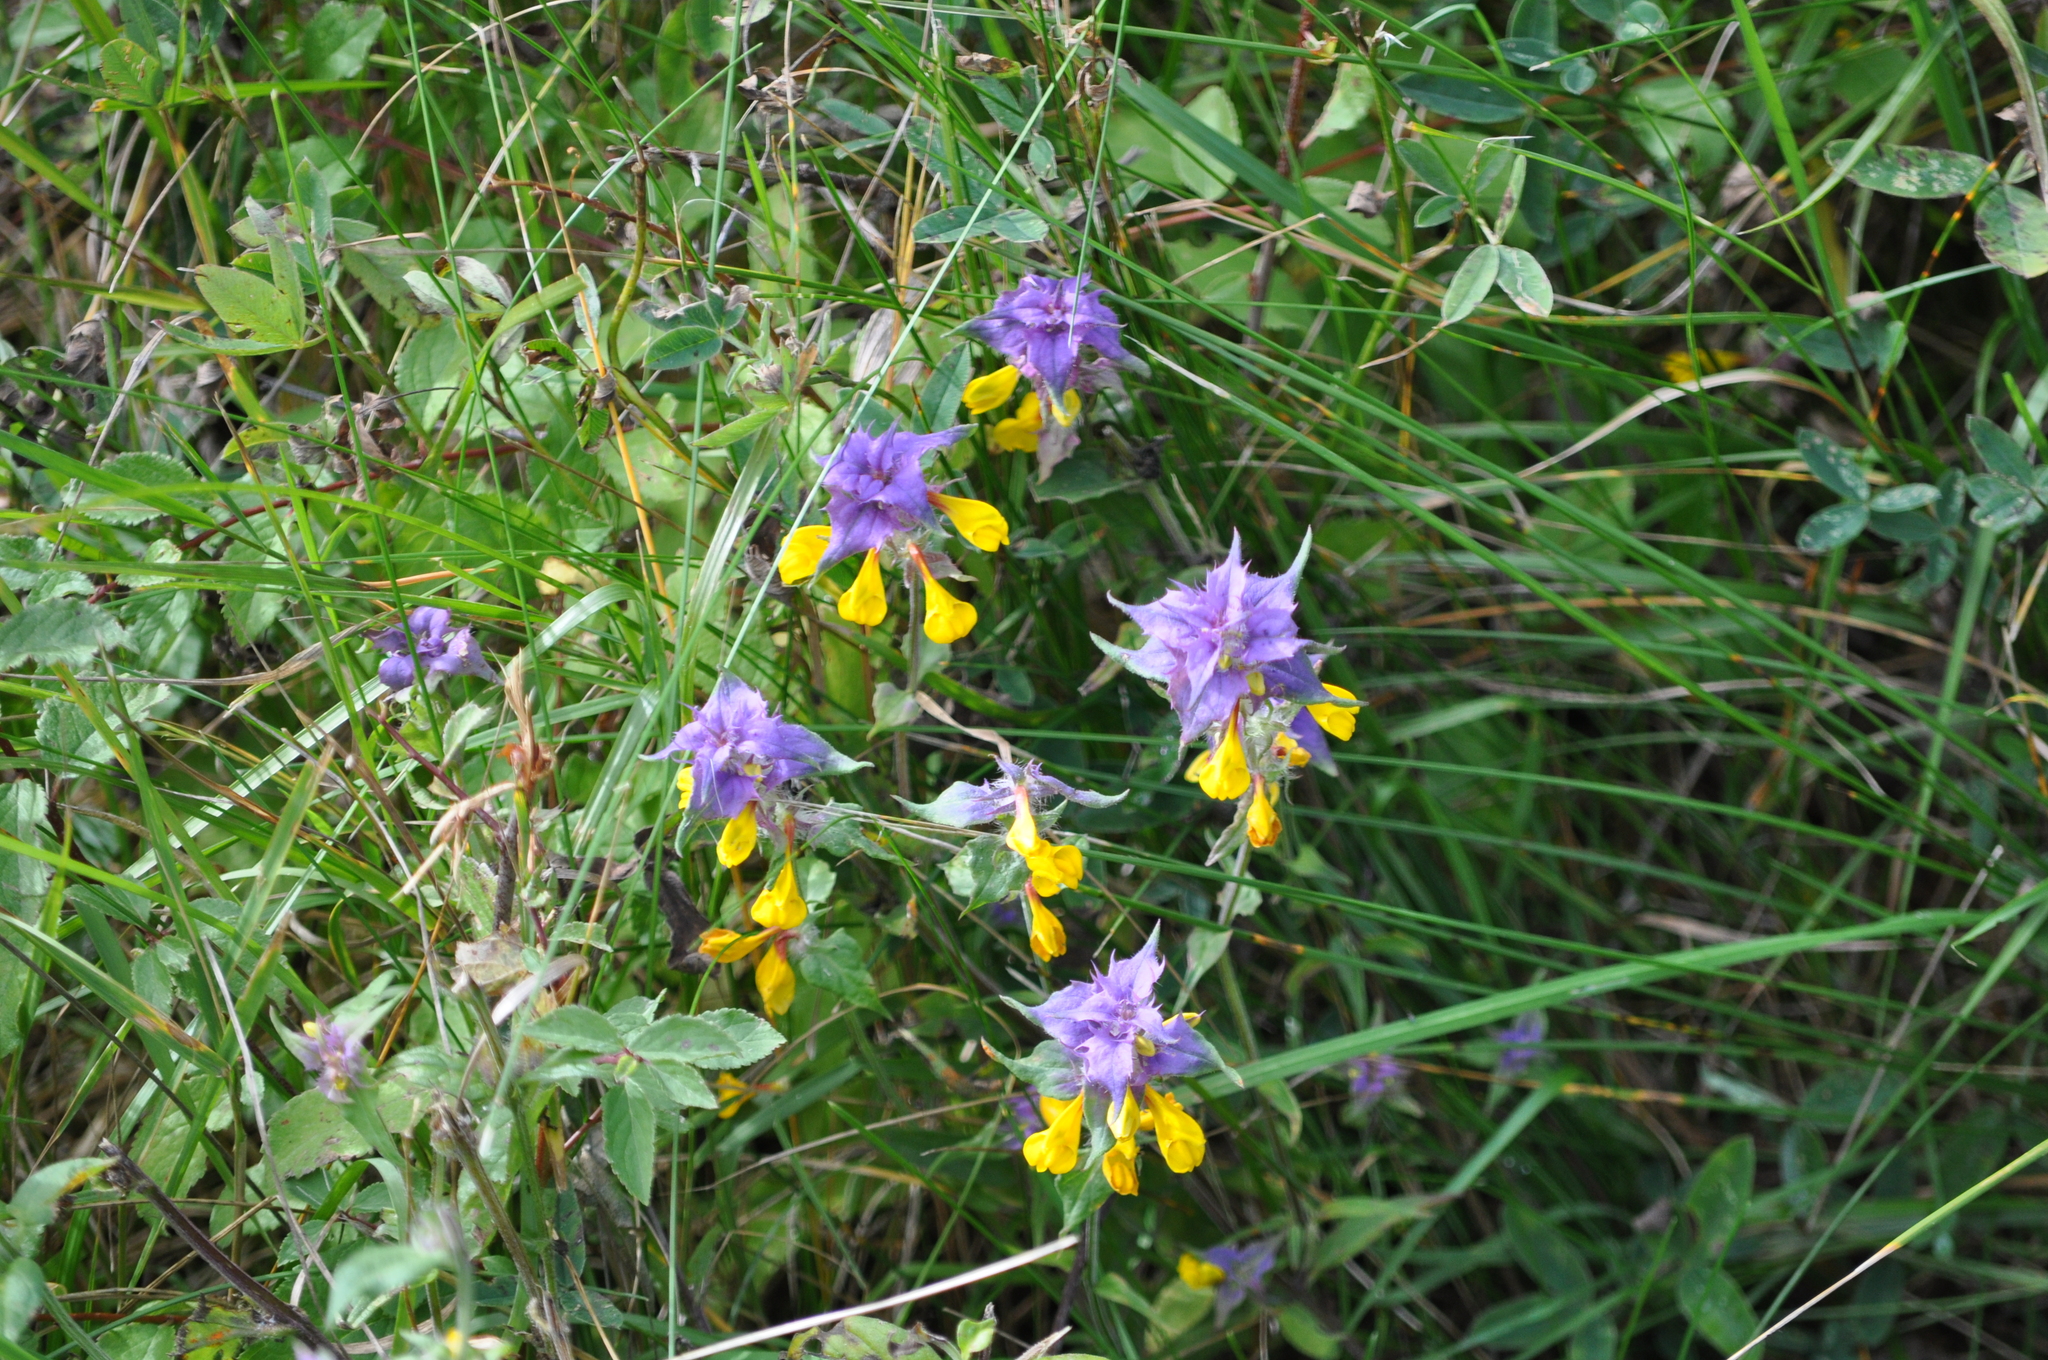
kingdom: Plantae
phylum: Tracheophyta
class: Magnoliopsida
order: Lamiales
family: Orobanchaceae
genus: Melampyrum
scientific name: Melampyrum nemorosum
